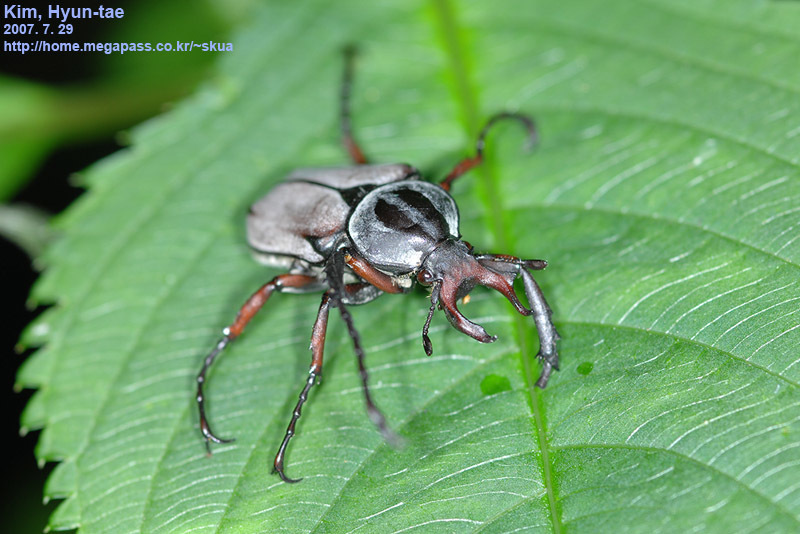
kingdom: Animalia
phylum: Arthropoda
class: Insecta
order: Coleoptera
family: Scarabaeidae
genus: Dicronocephalus
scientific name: Dicronocephalus adamsi
